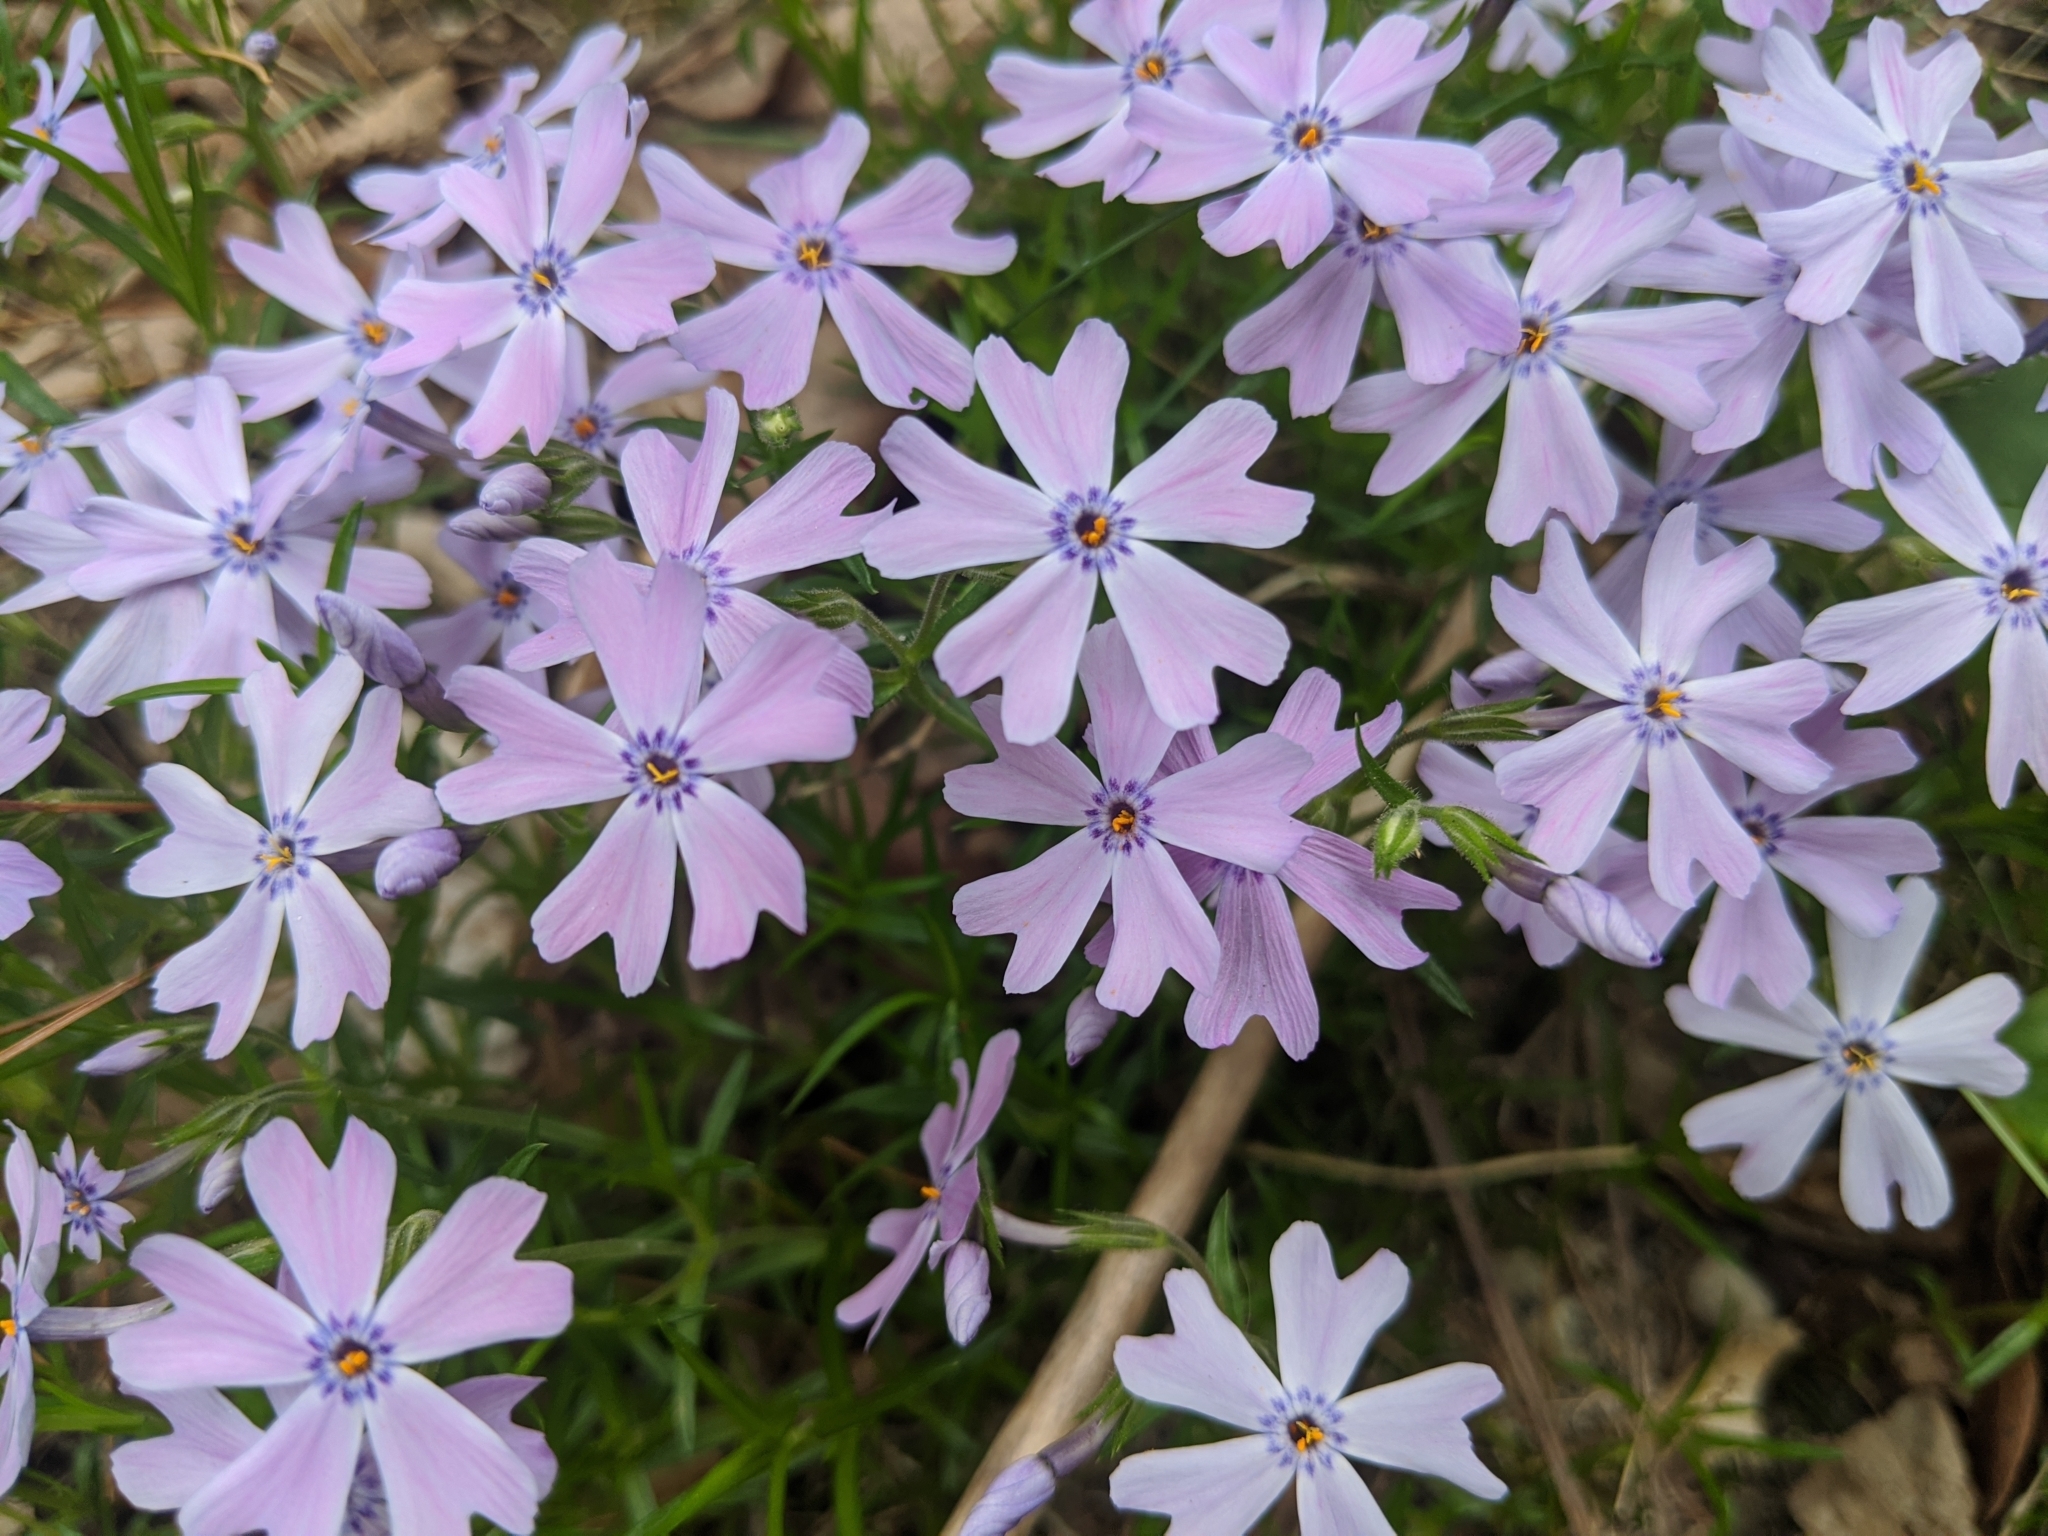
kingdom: Plantae
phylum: Tracheophyta
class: Magnoliopsida
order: Ericales
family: Polemoniaceae
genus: Phlox
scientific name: Phlox subulata
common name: Moss phlox
